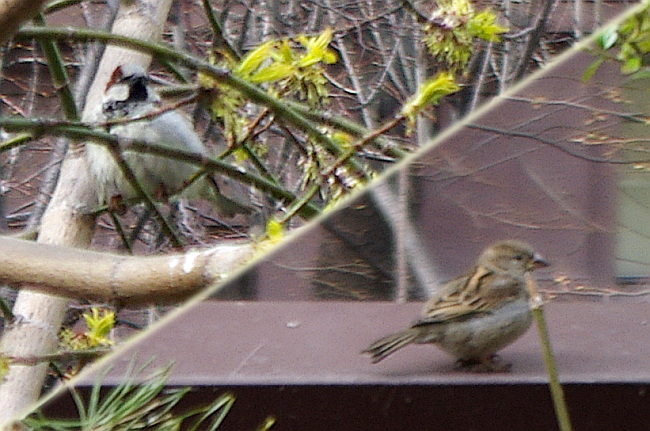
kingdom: Animalia
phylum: Chordata
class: Aves
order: Passeriformes
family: Passeridae
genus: Passer
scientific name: Passer domesticus
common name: House sparrow
